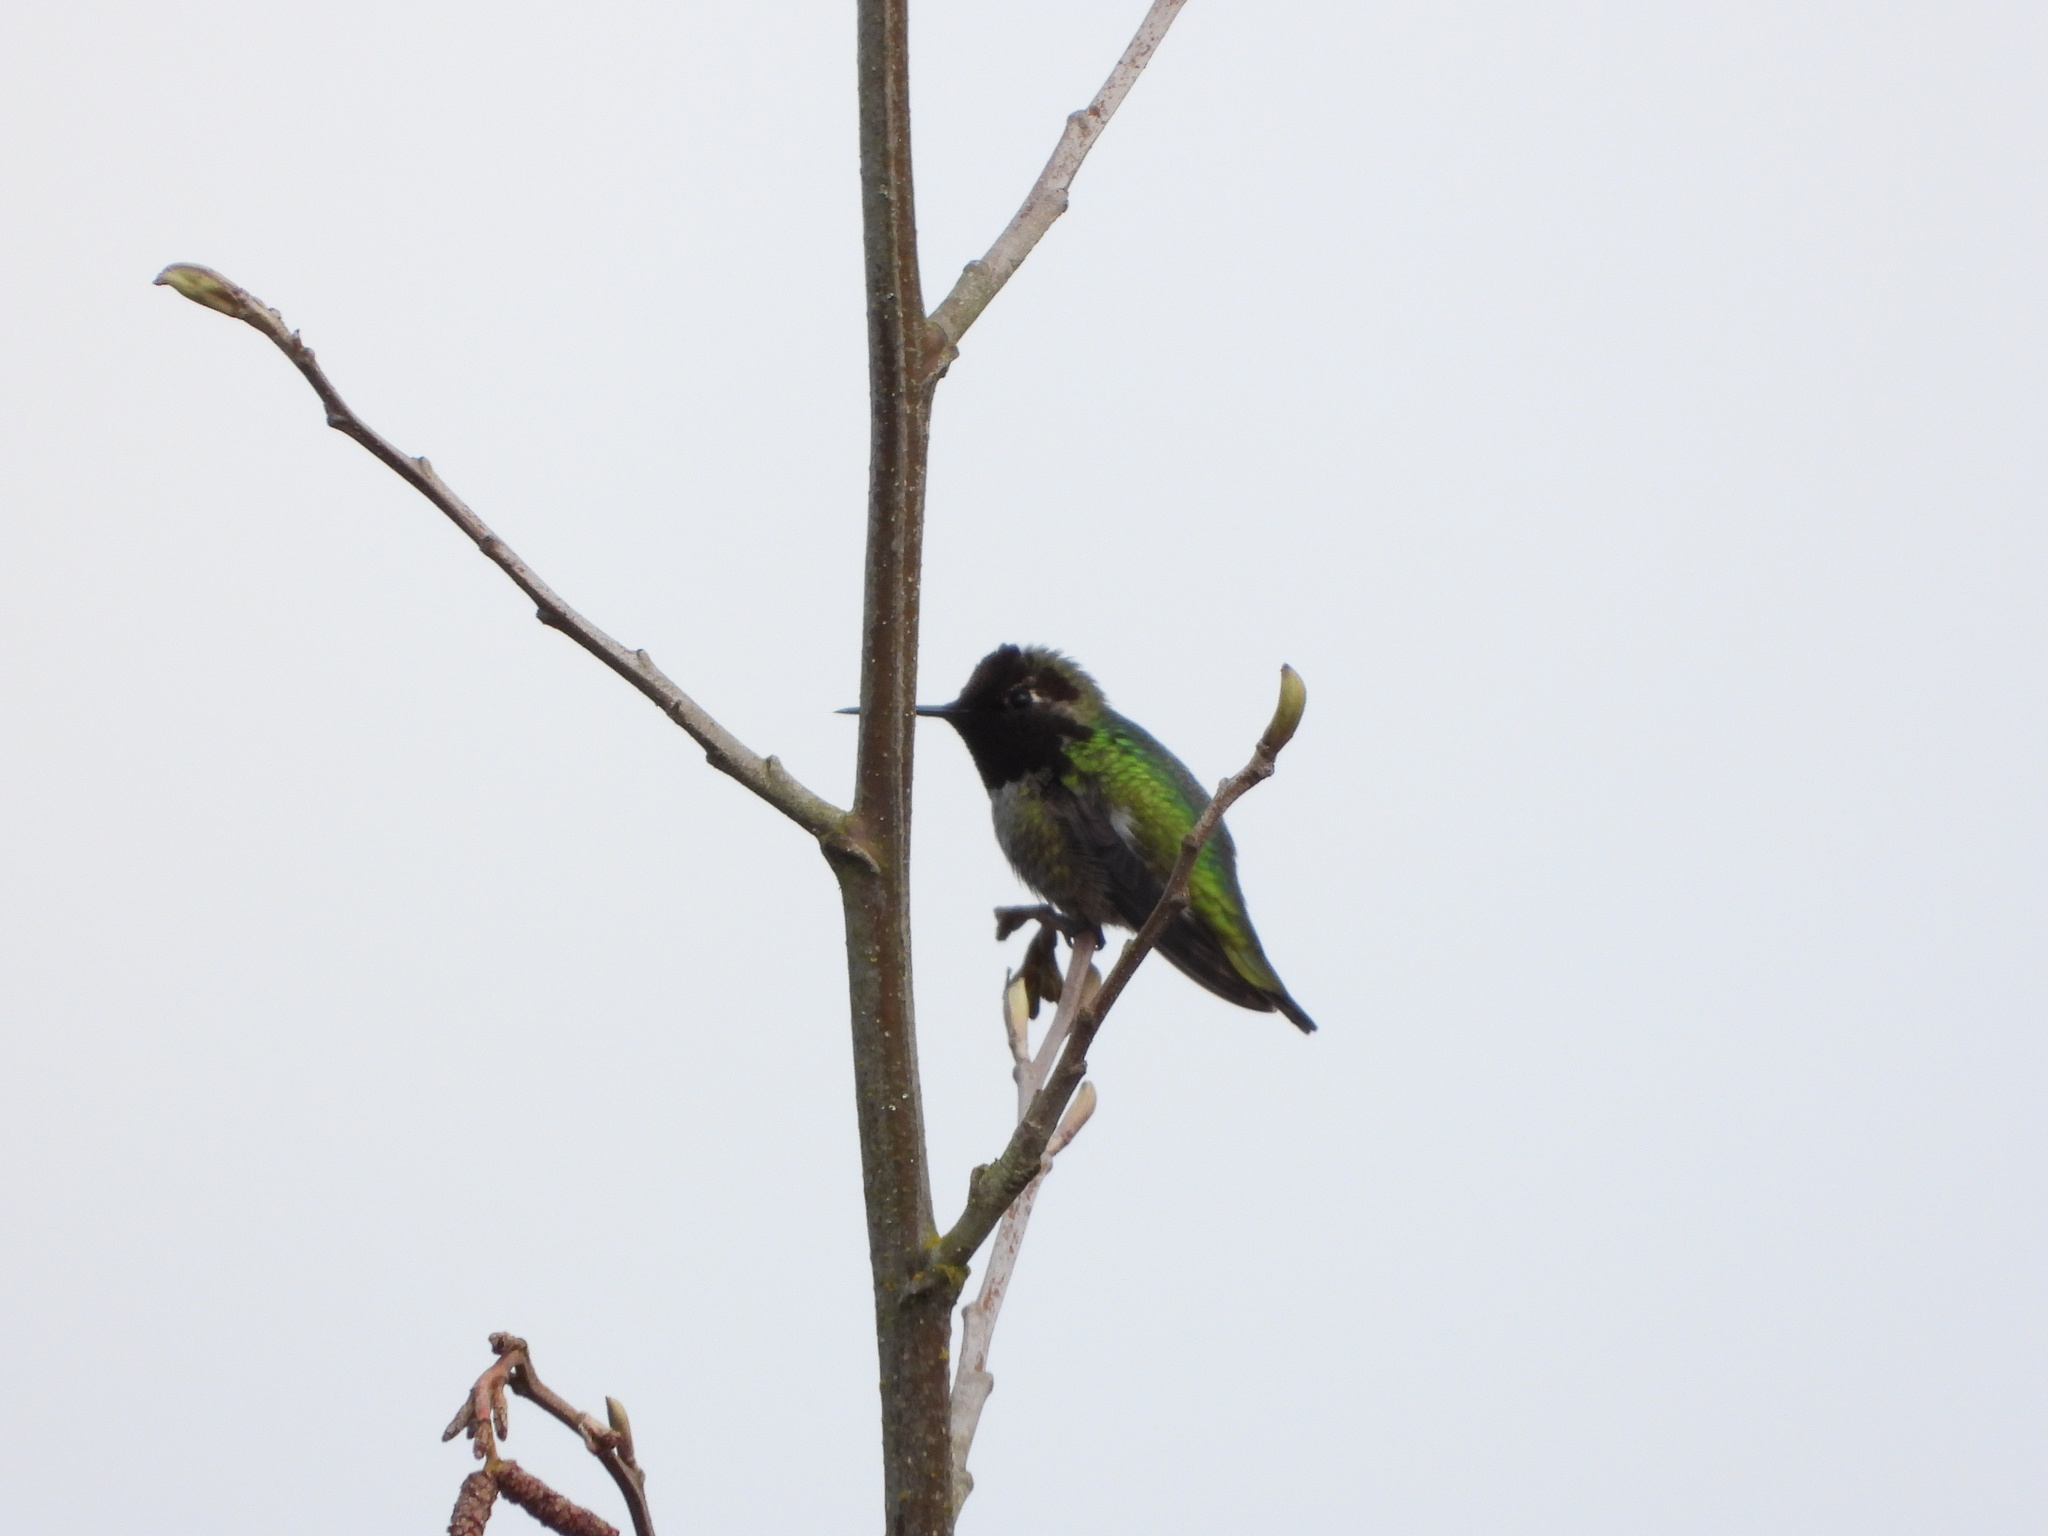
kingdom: Animalia
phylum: Chordata
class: Aves
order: Apodiformes
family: Trochilidae
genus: Calypte
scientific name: Calypte anna
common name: Anna's hummingbird
